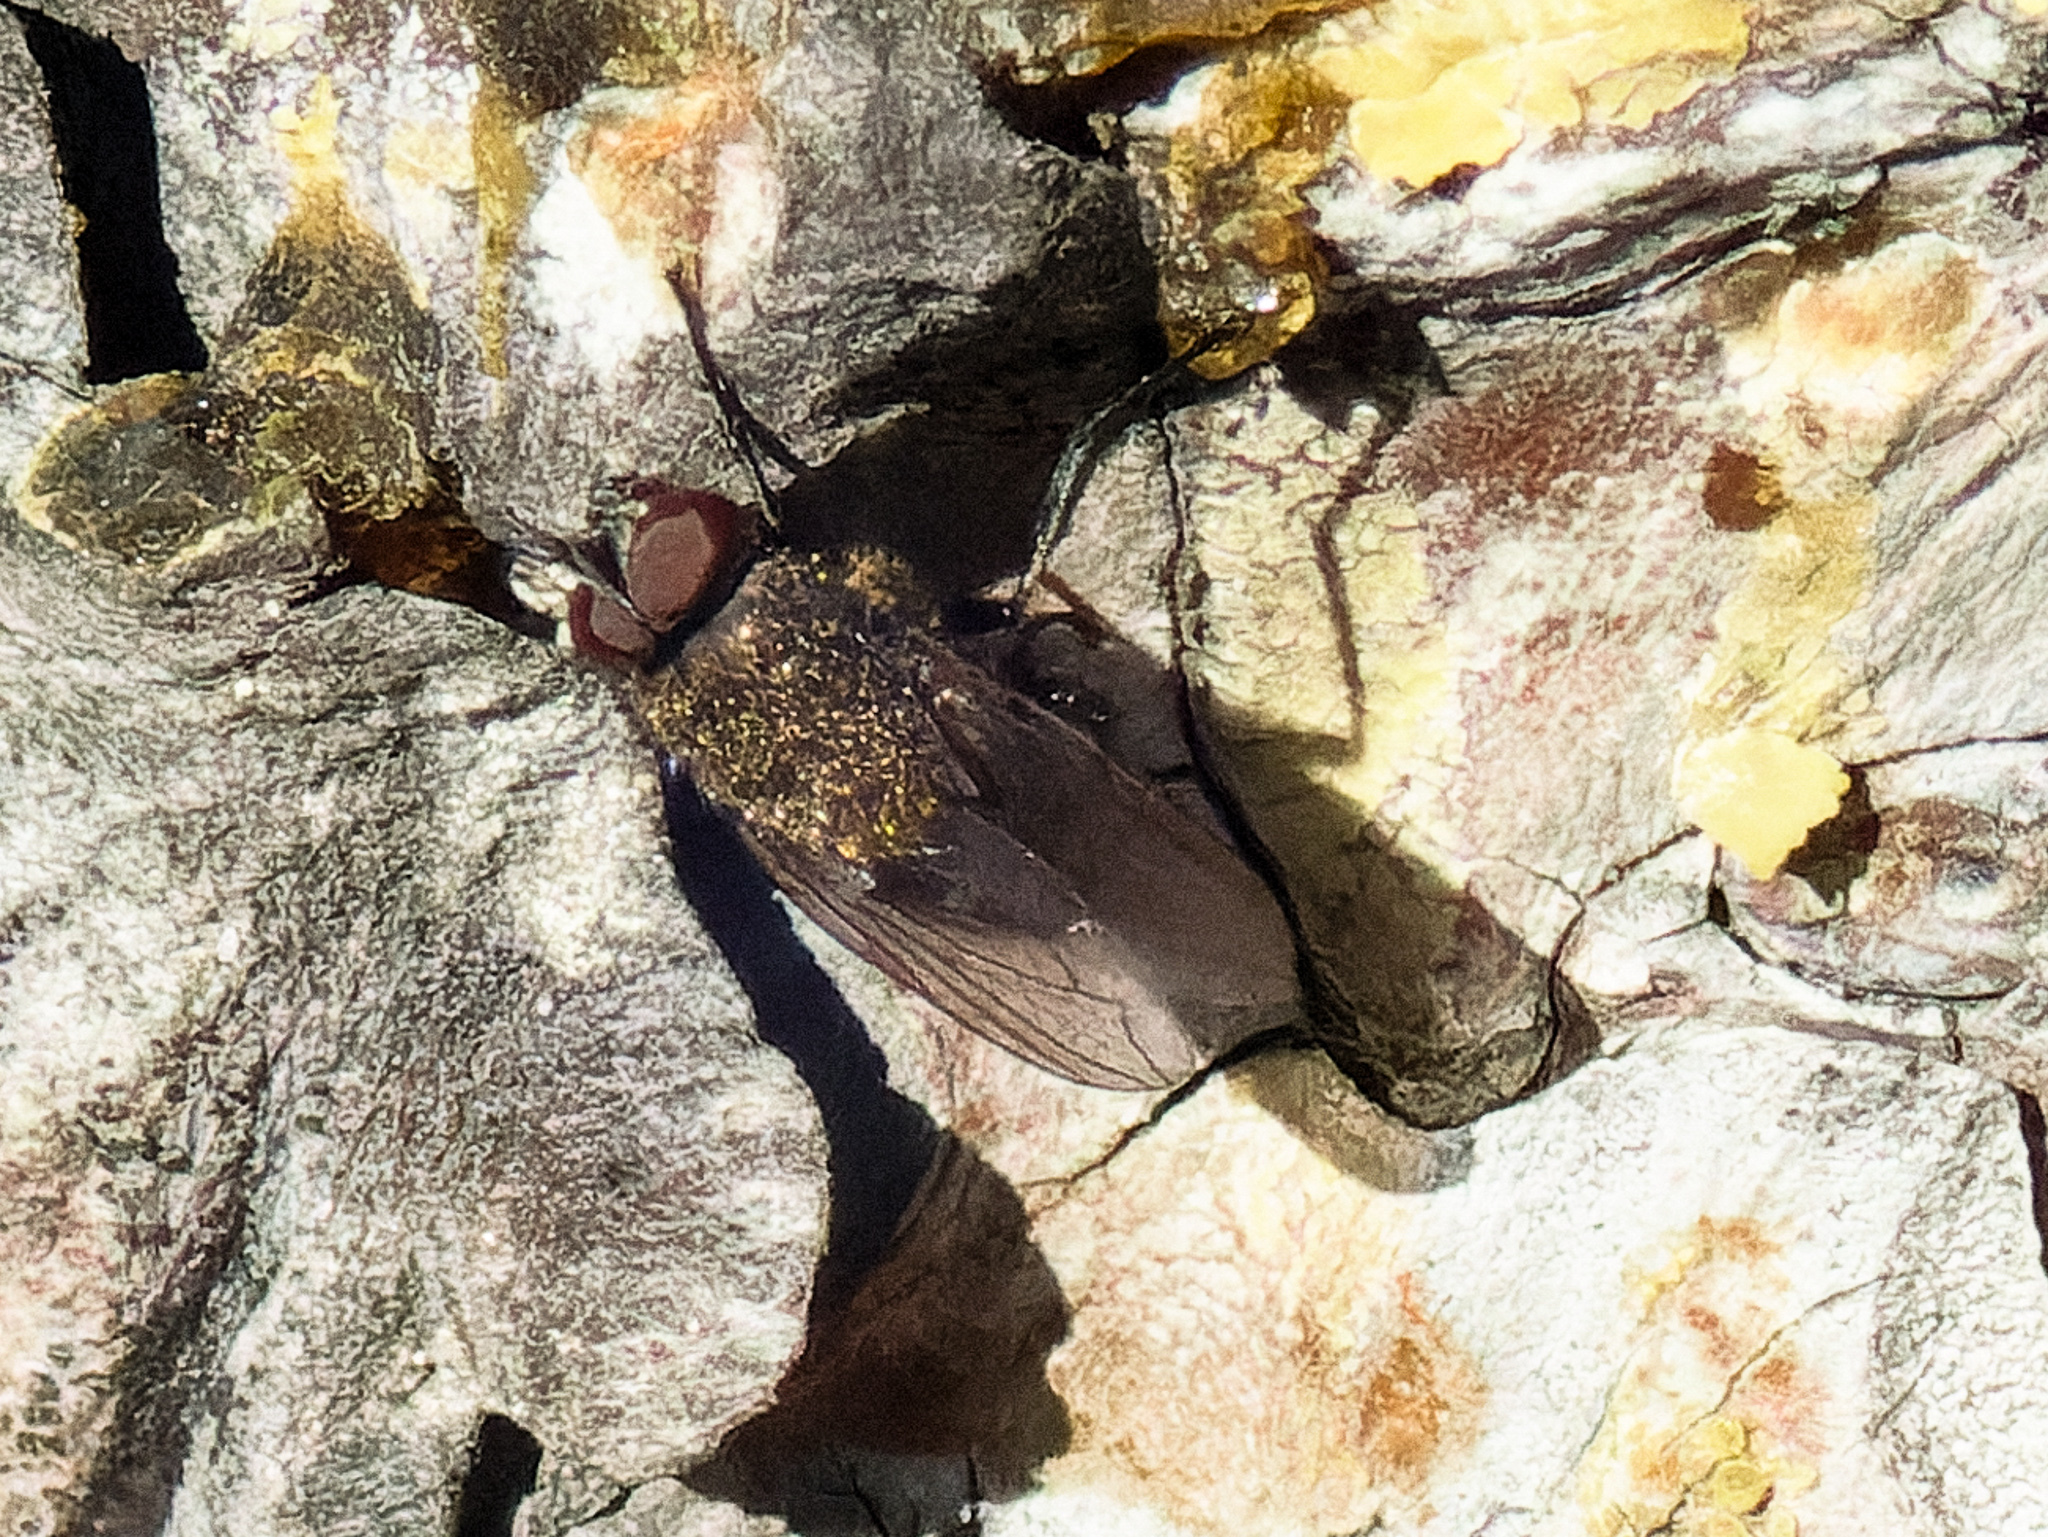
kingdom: Animalia
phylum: Arthropoda
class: Insecta
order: Diptera
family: Polleniidae
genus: Pollenia
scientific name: Pollenia
